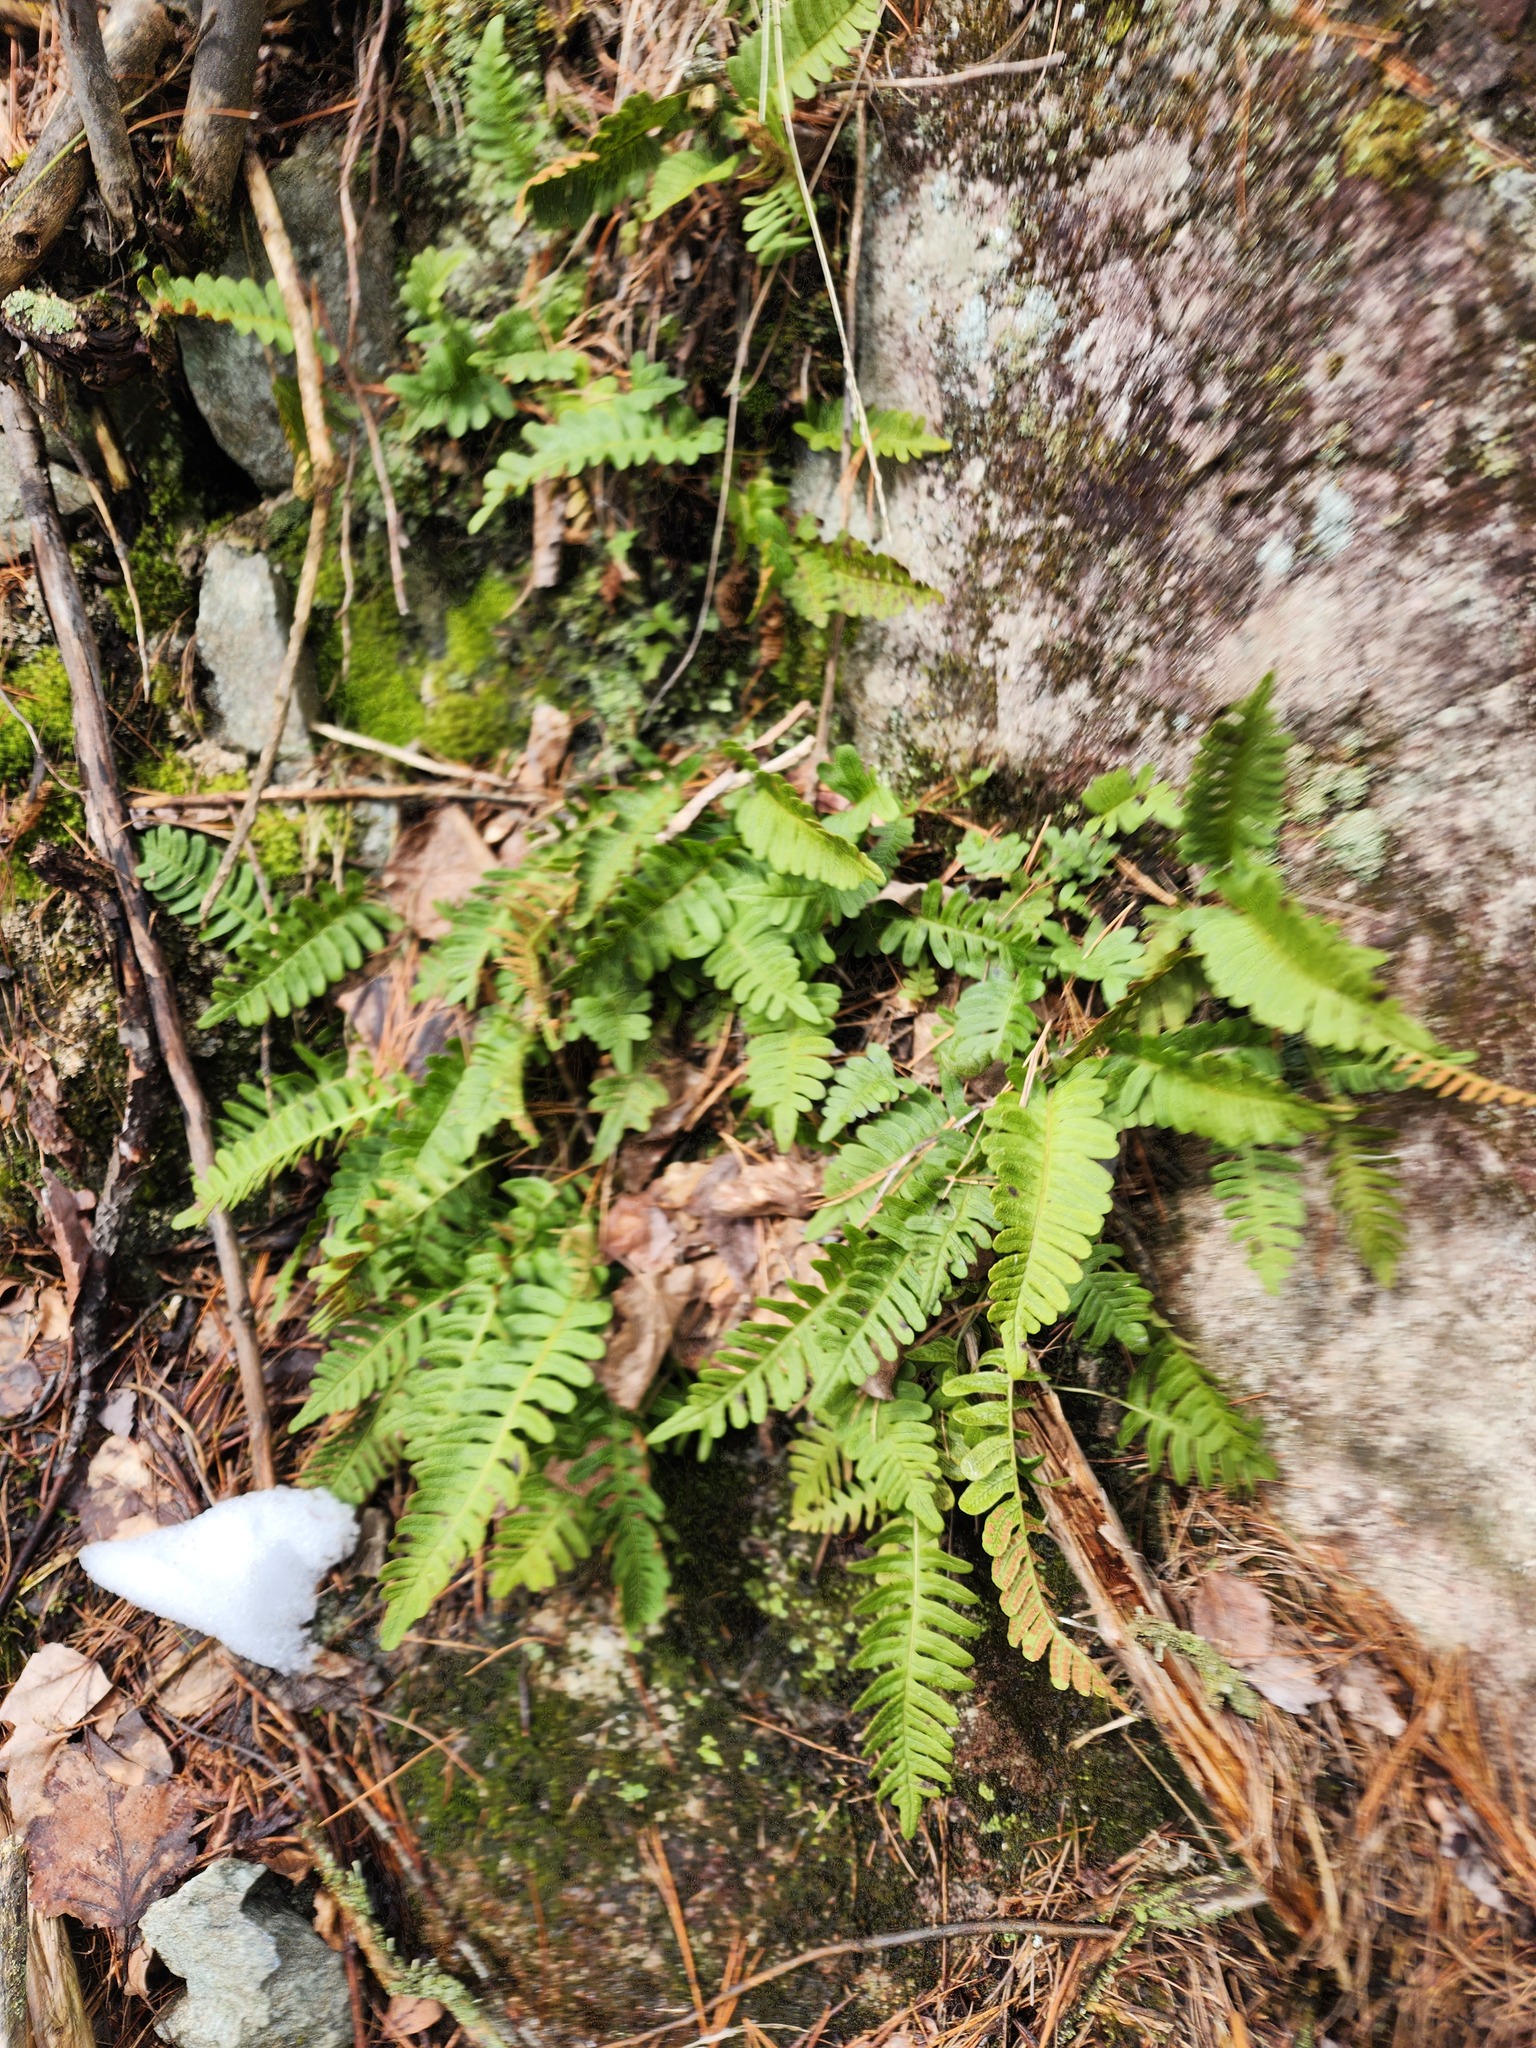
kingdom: Plantae
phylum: Tracheophyta
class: Polypodiopsida
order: Polypodiales
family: Polypodiaceae
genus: Polypodium
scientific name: Polypodium virginianum
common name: American wall fern
